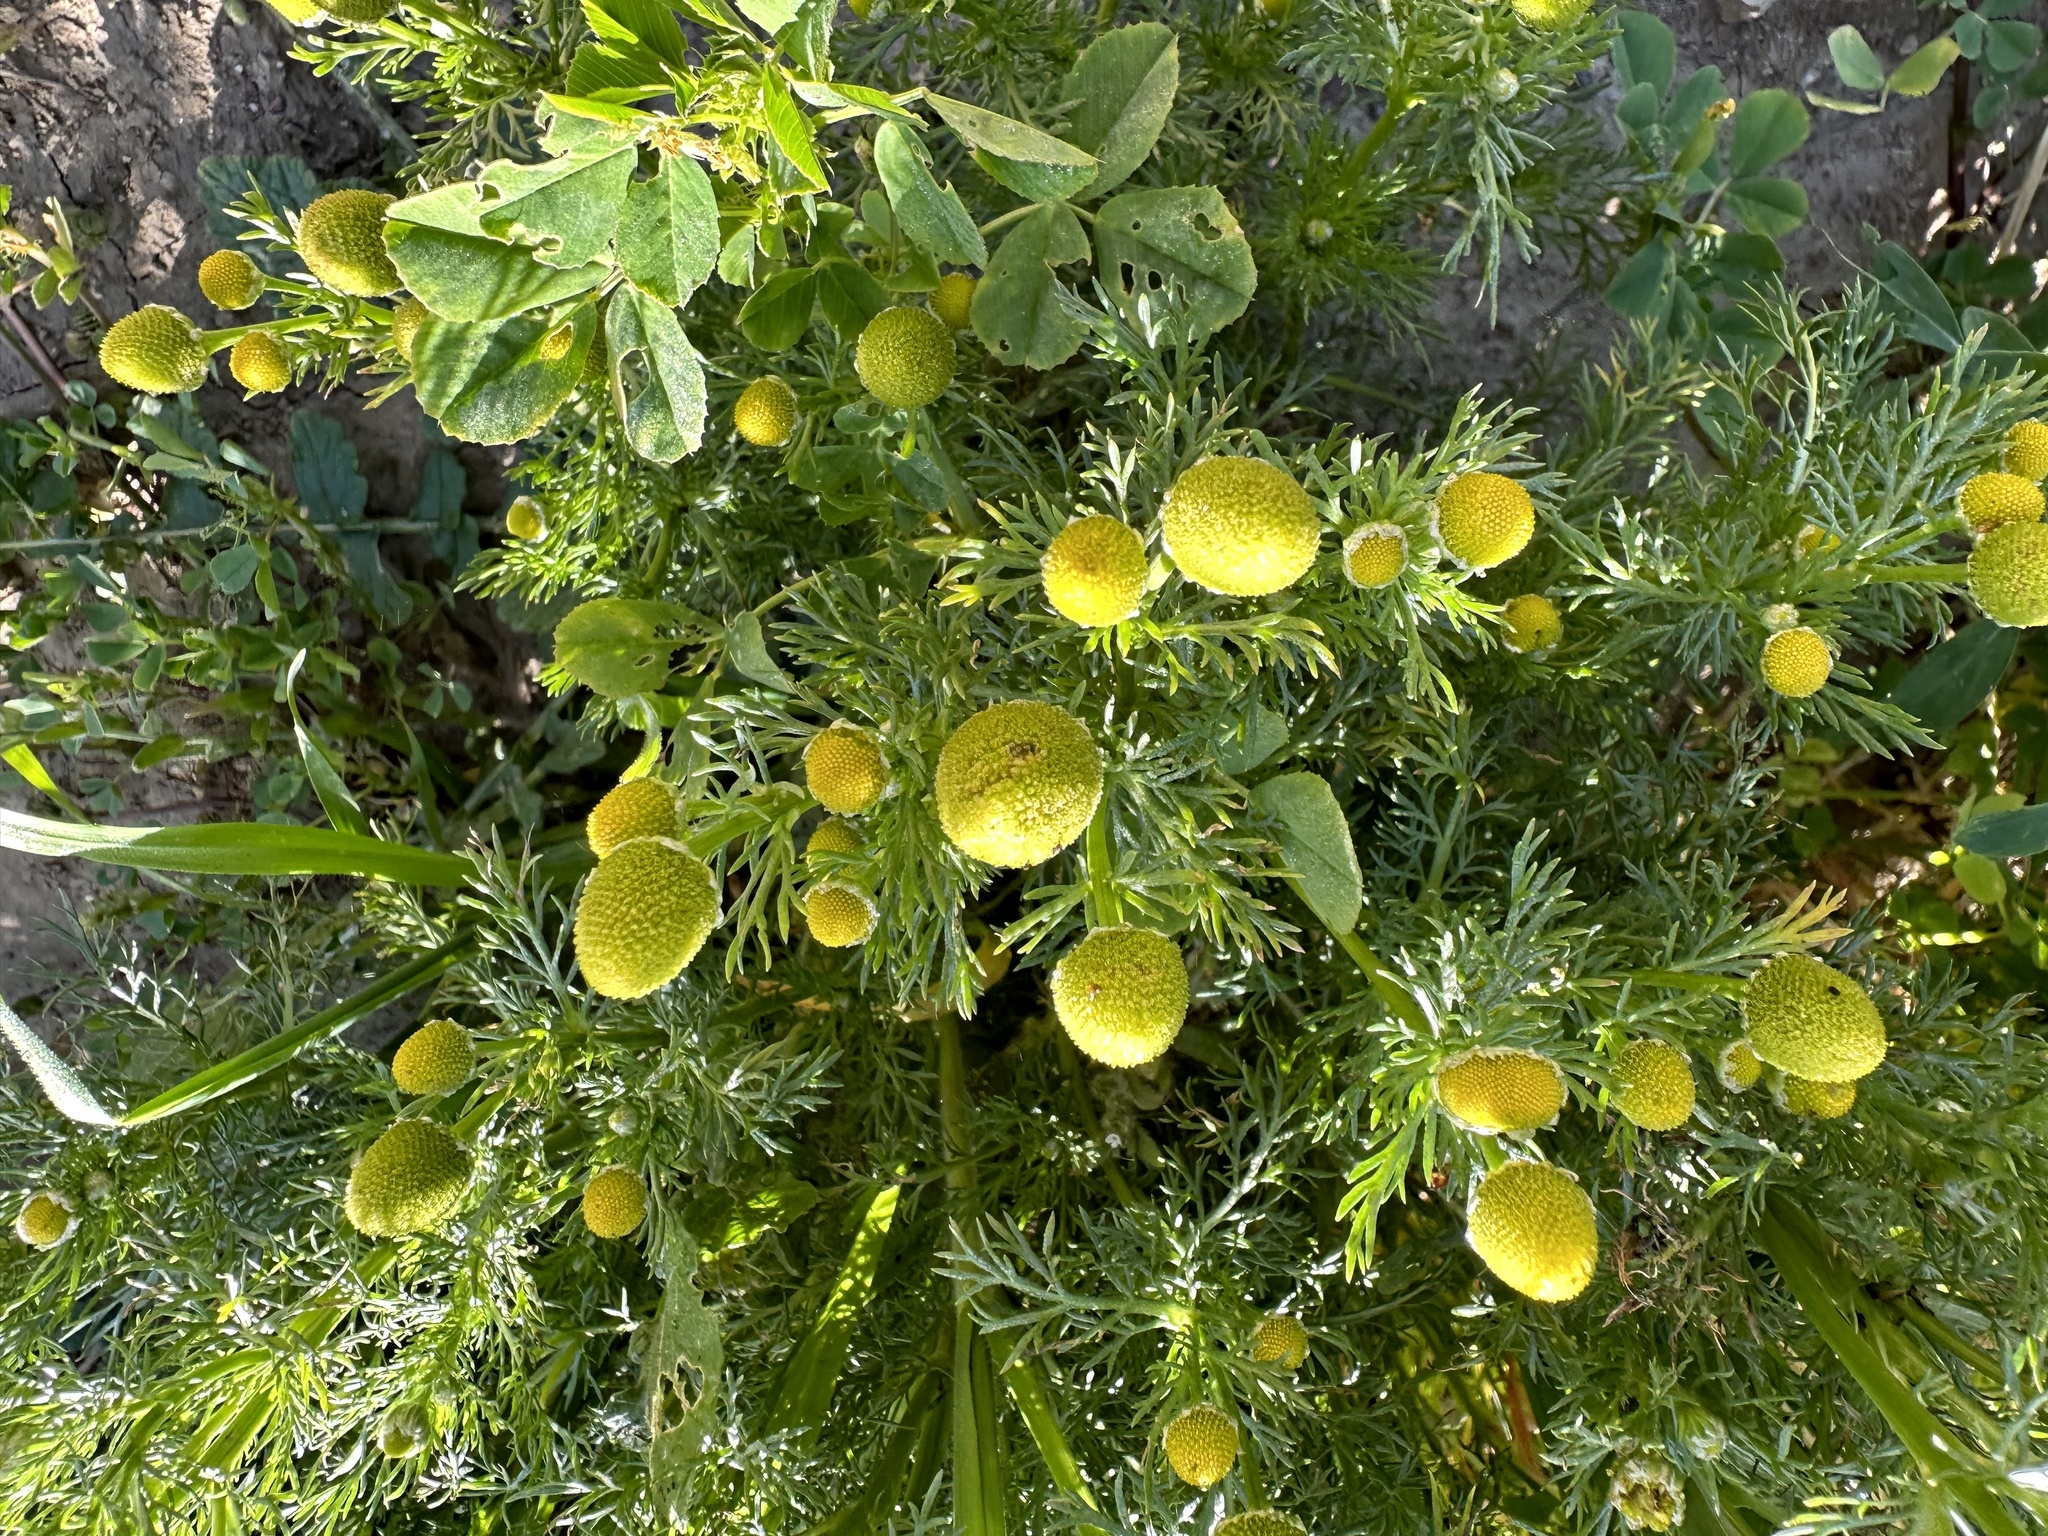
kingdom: Plantae
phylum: Tracheophyta
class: Magnoliopsida
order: Asterales
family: Asteraceae
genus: Matricaria
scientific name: Matricaria discoidea
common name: Disc mayweed
